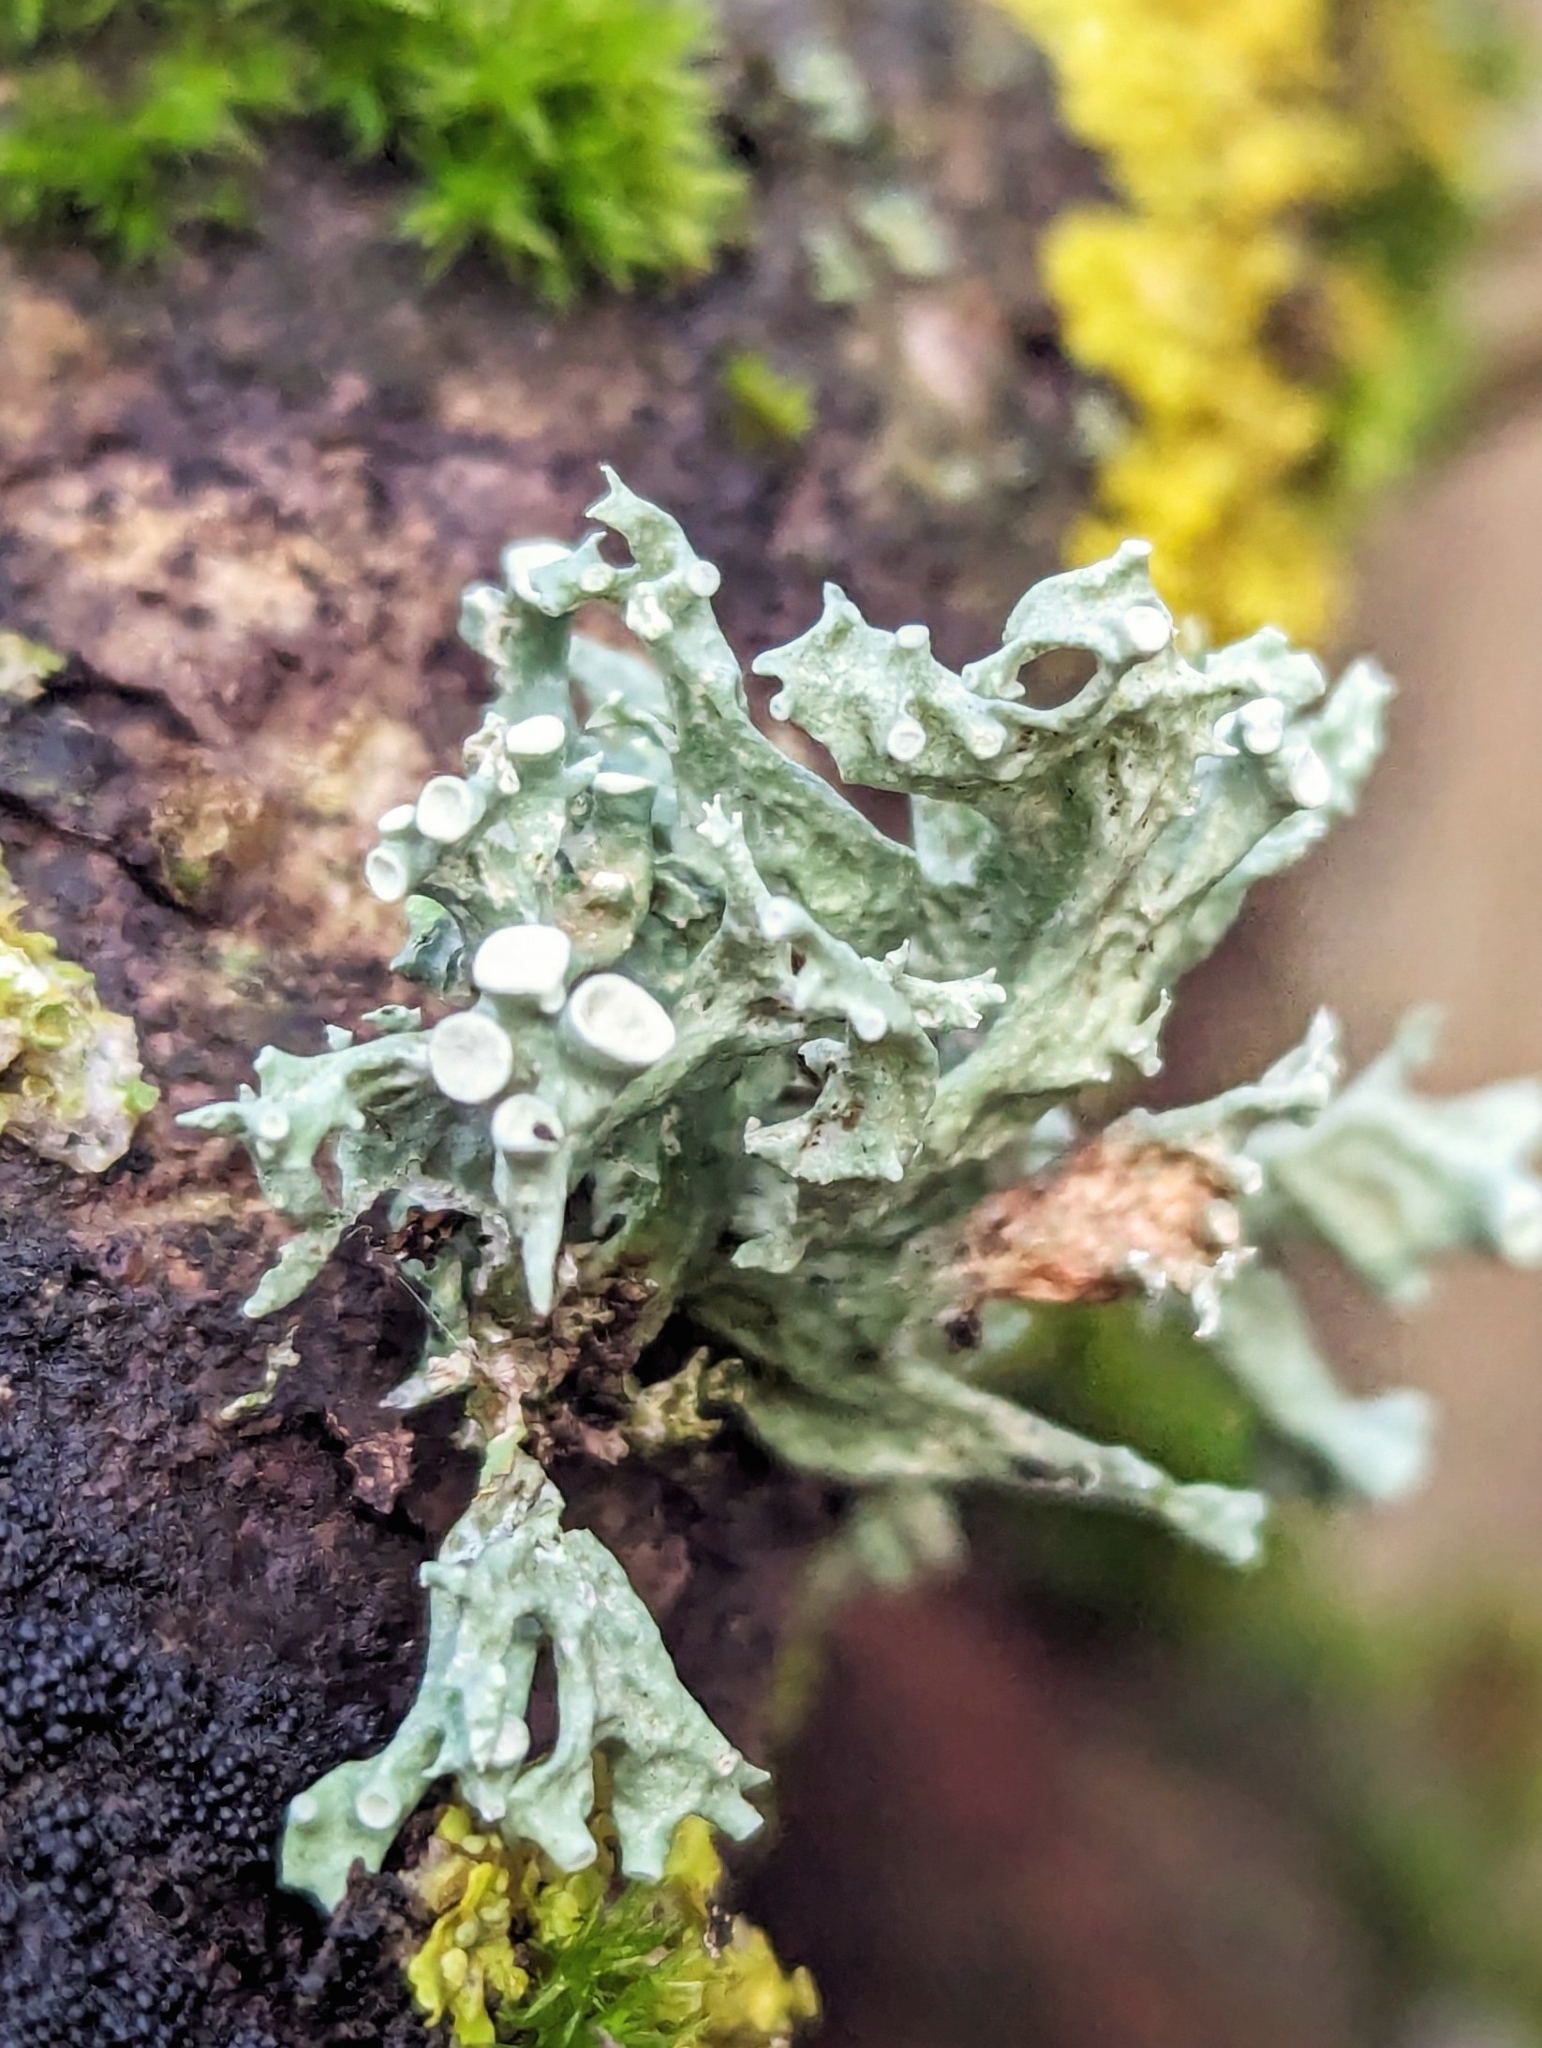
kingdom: Fungi
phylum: Ascomycota
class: Lecanoromycetes
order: Lecanorales
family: Ramalinaceae
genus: Ramalina
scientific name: Ramalina fastigiata
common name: Dotted ribbon lichen
